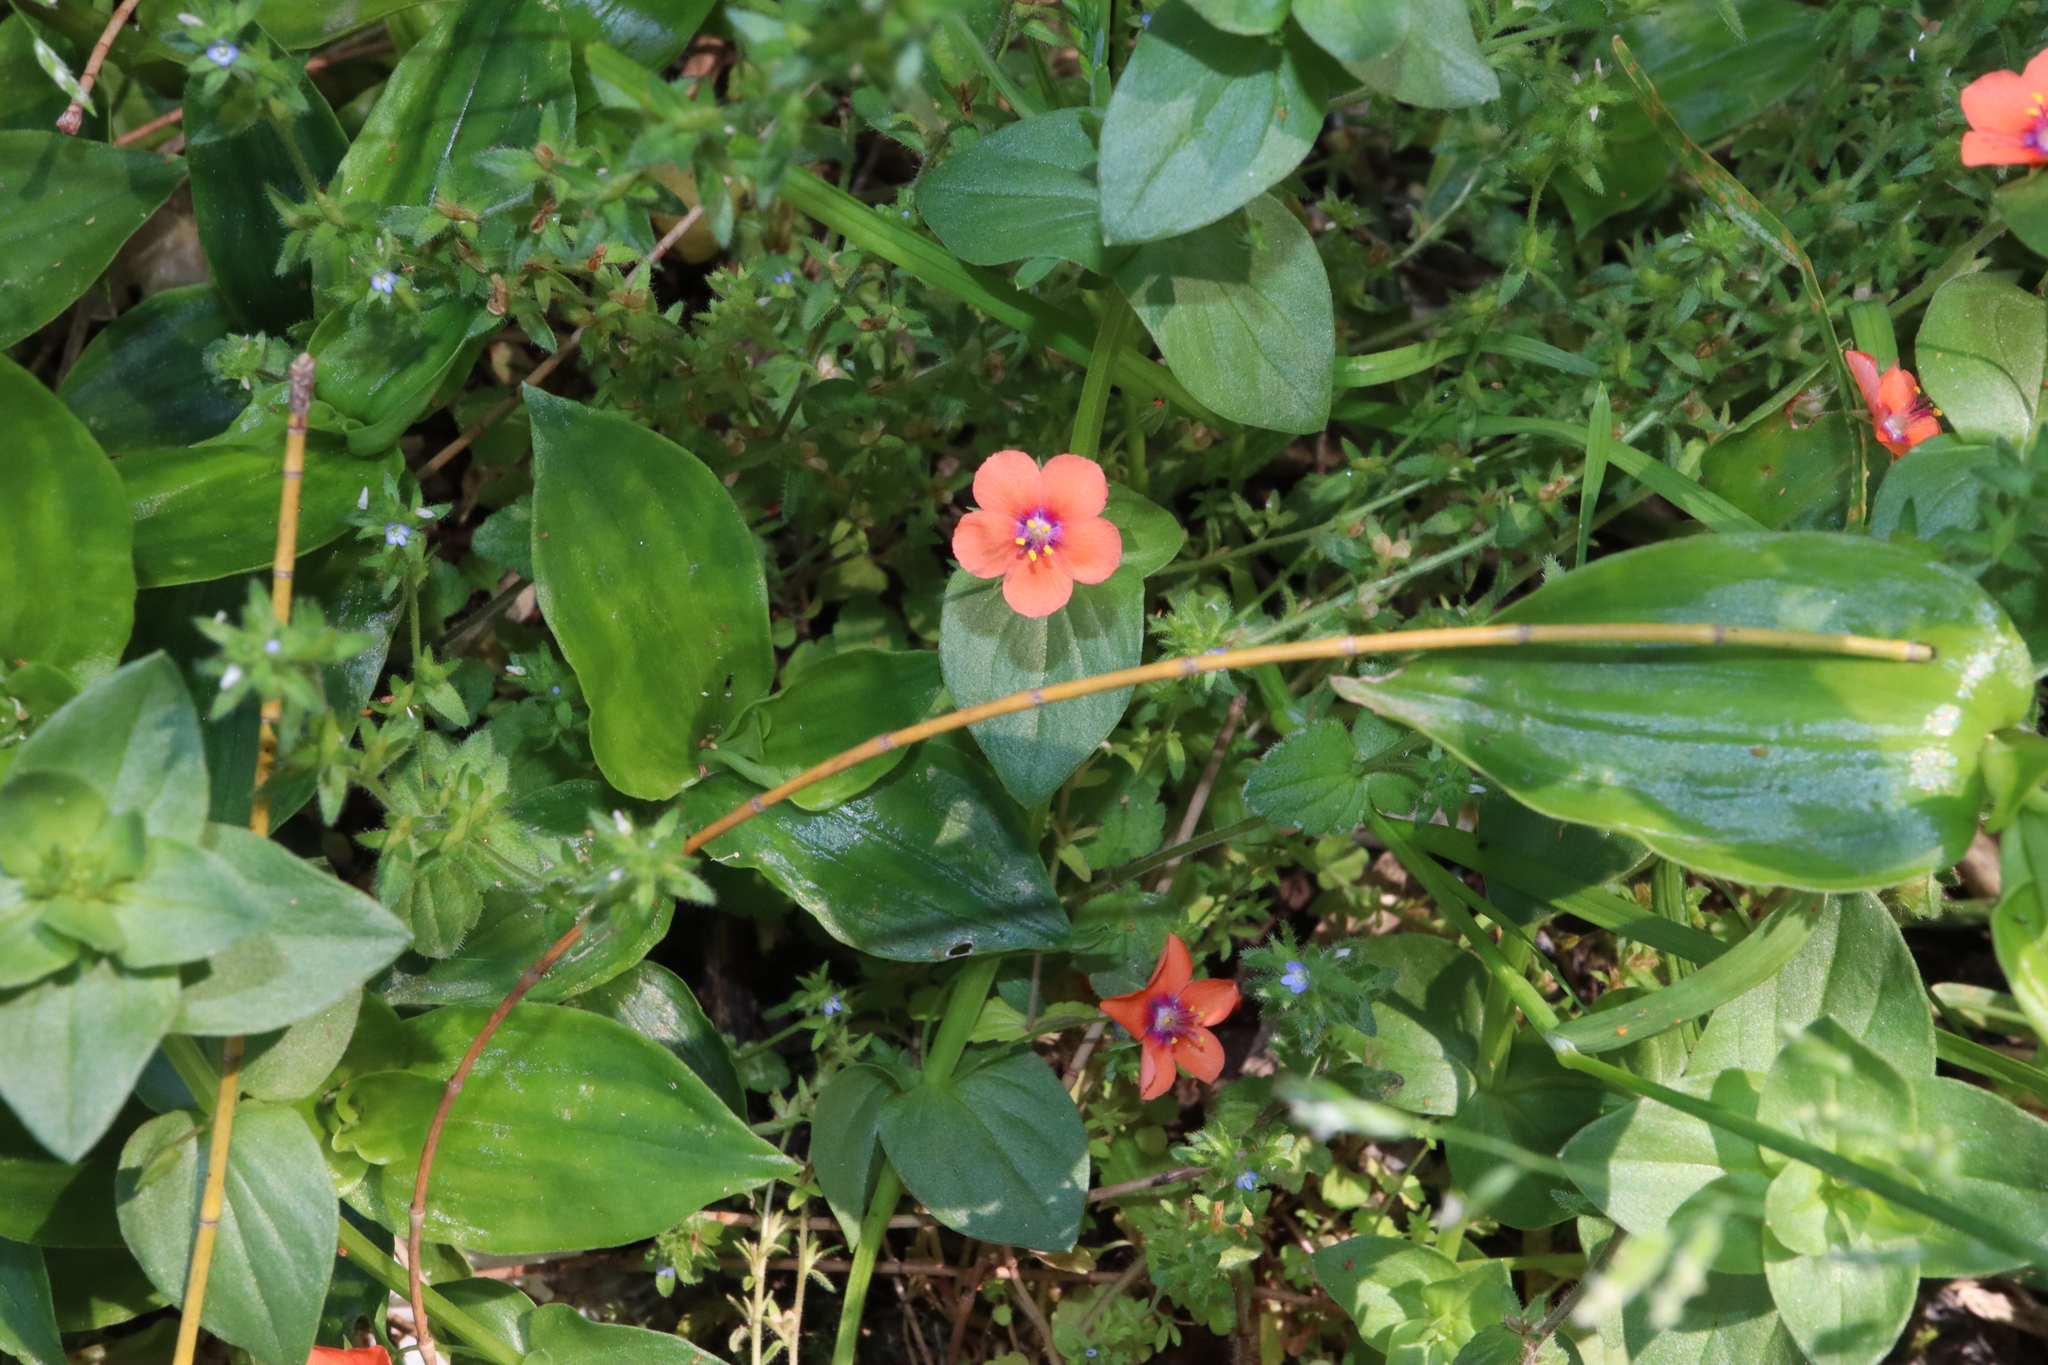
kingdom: Plantae
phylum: Tracheophyta
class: Magnoliopsida
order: Ericales
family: Primulaceae
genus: Lysimachia
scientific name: Lysimachia arvensis
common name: Scarlet pimpernel
